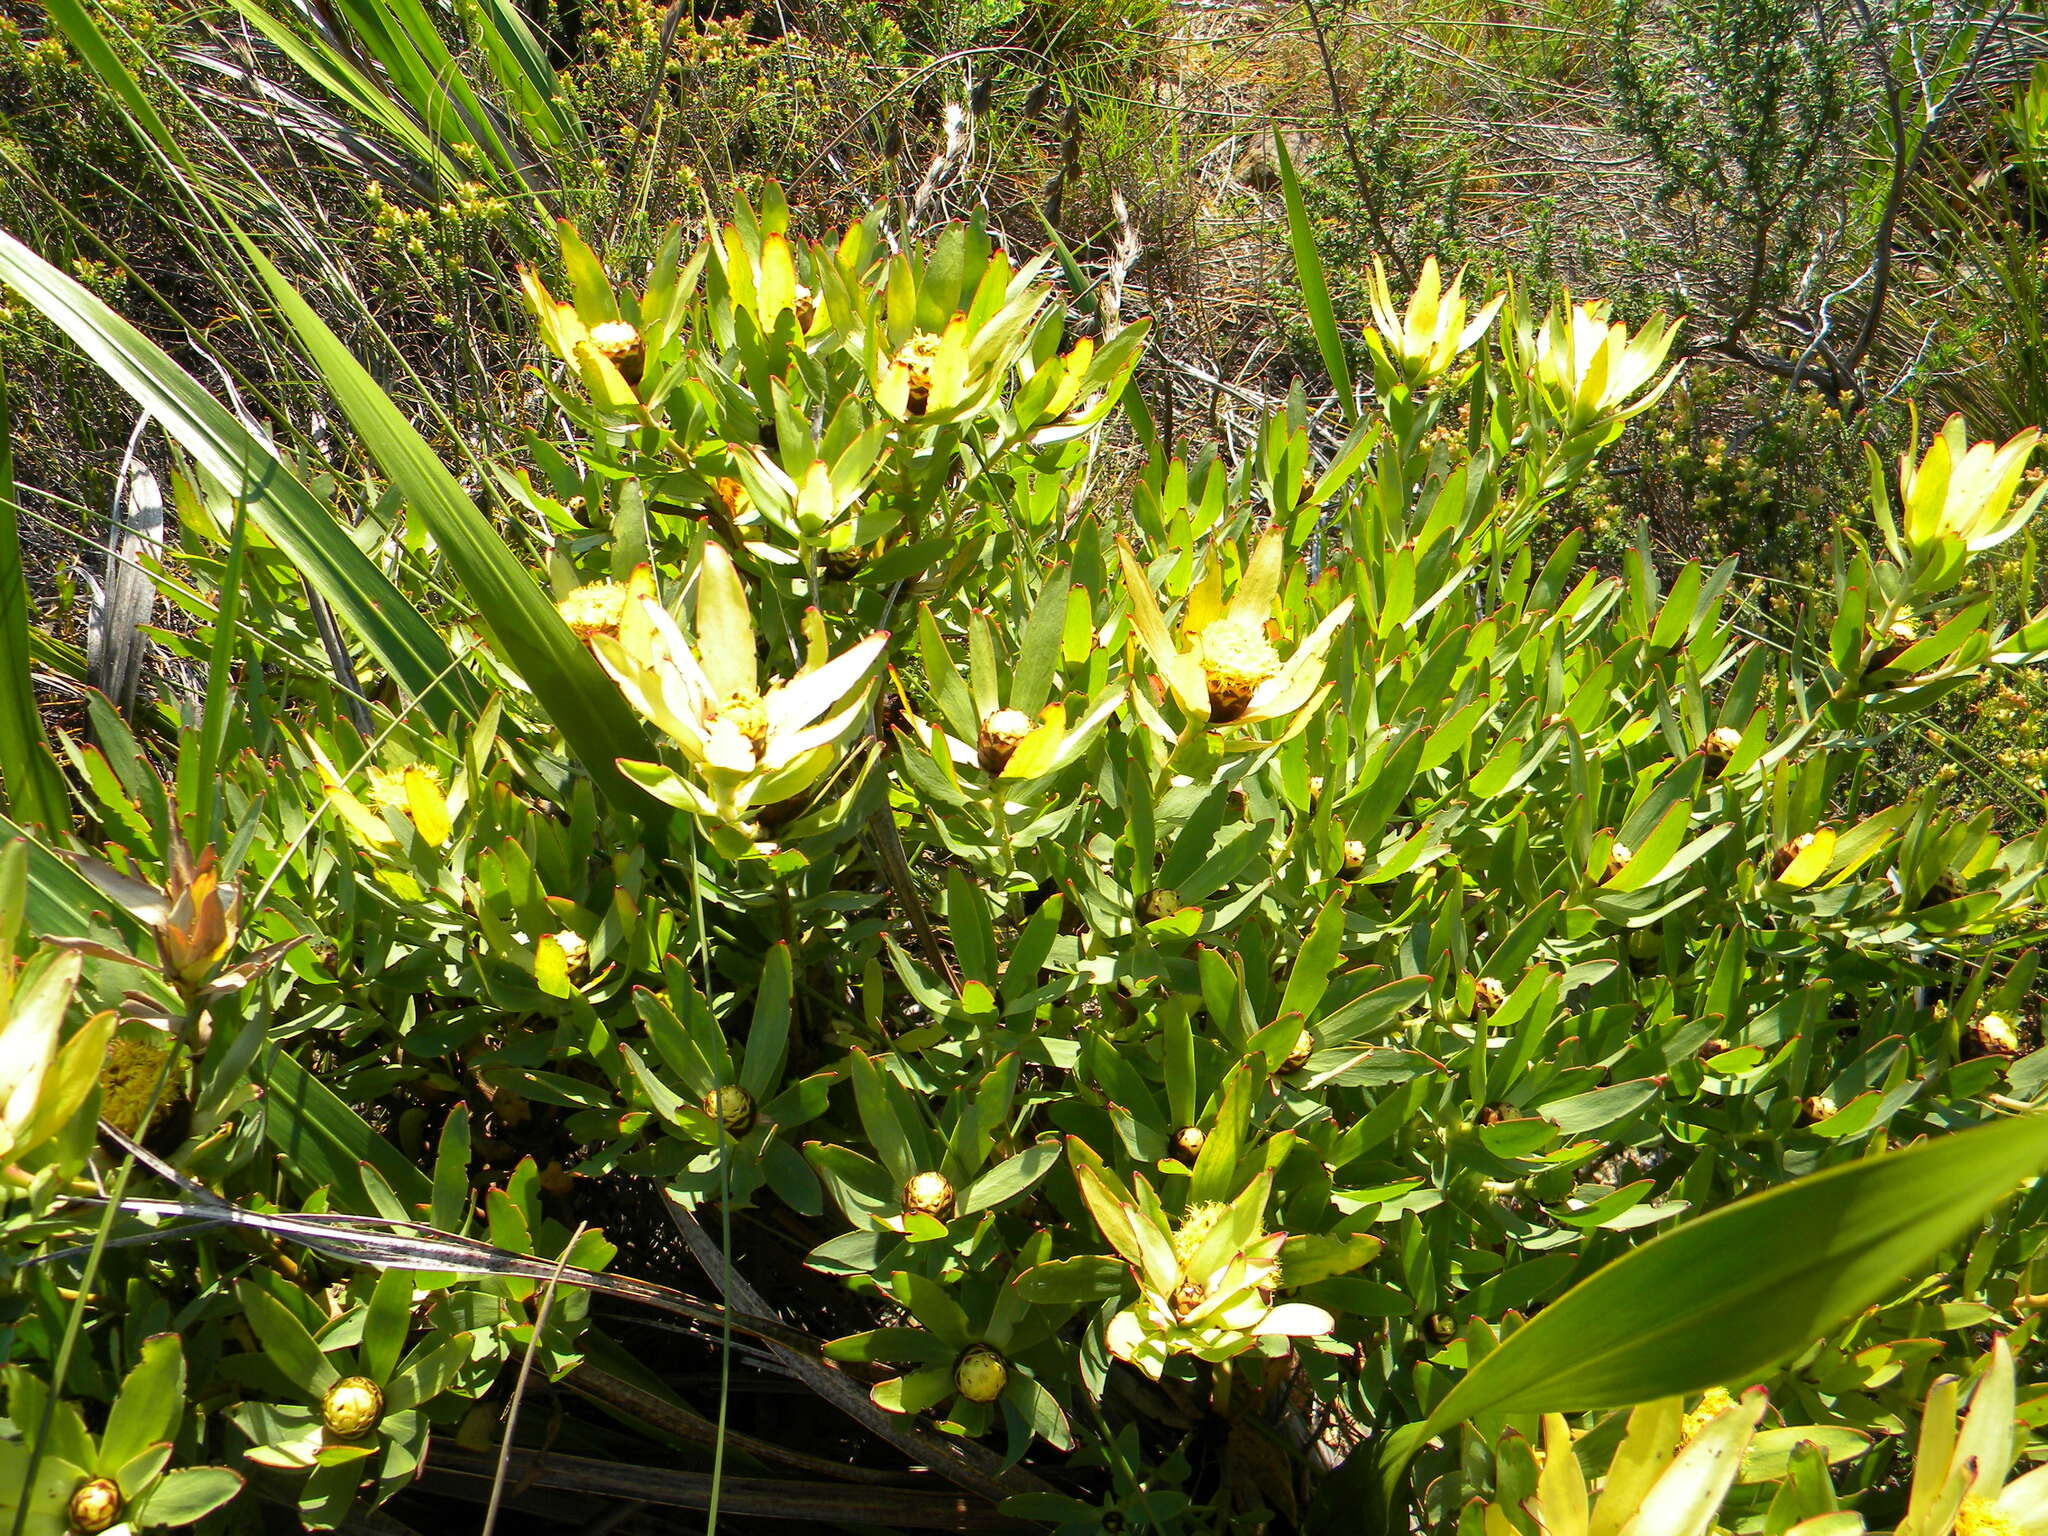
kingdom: Plantae
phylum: Tracheophyta
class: Magnoliopsida
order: Proteales
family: Proteaceae
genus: Leucadendron
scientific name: Leucadendron sessile
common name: Western sunbush
